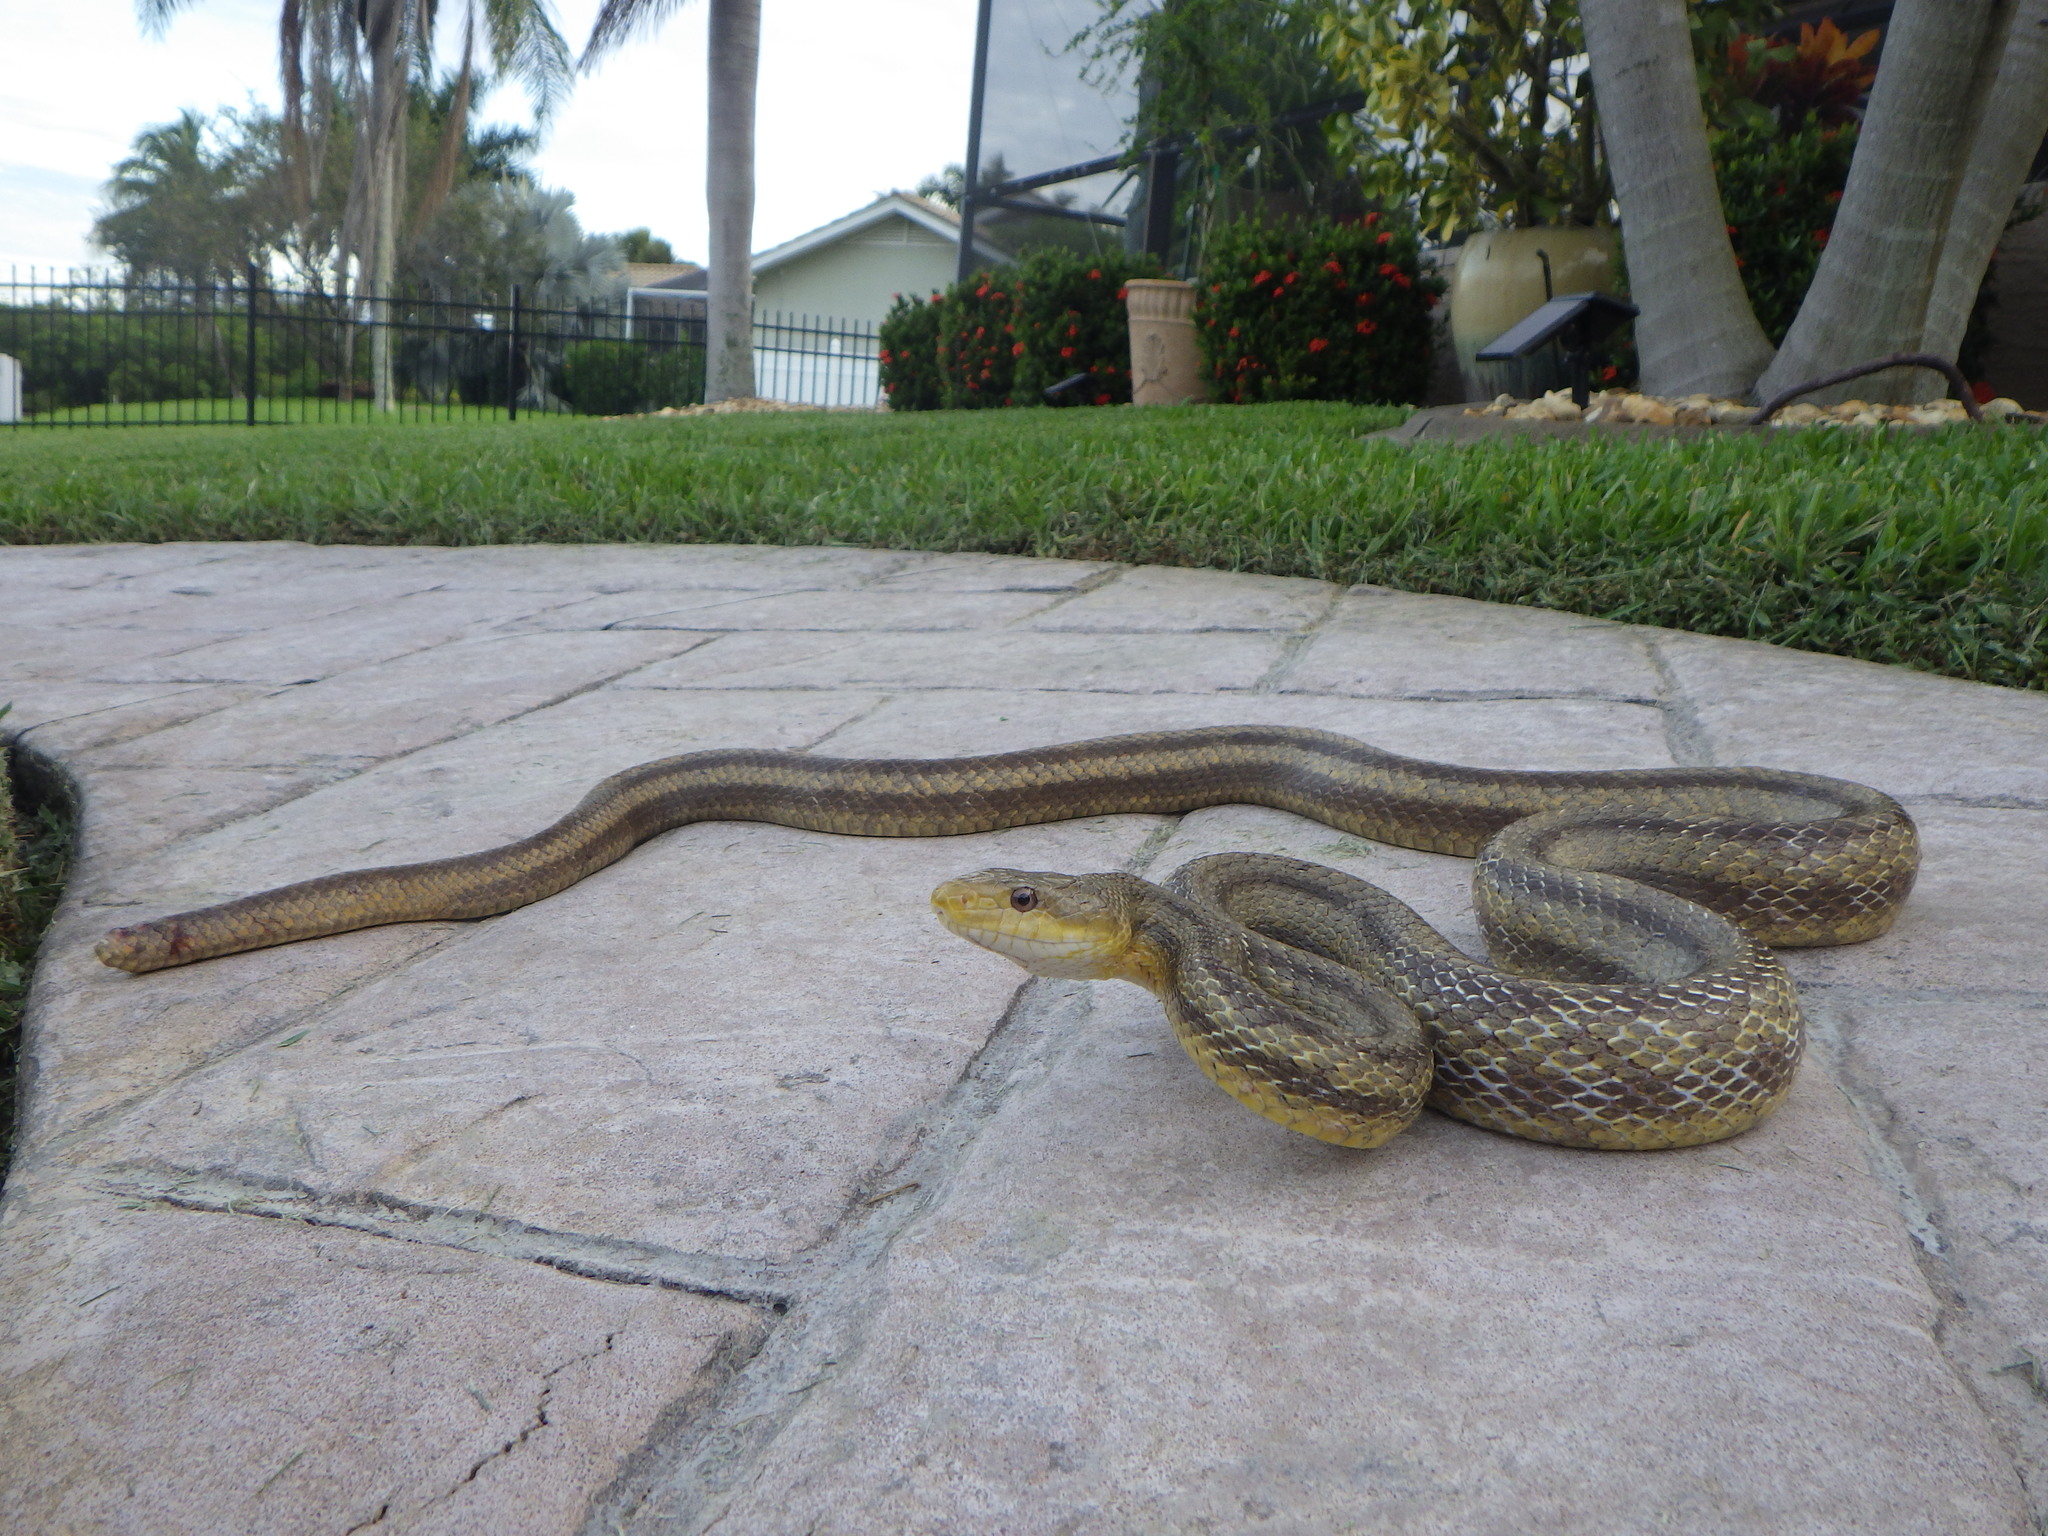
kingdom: Animalia
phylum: Chordata
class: Squamata
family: Colubridae
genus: Pantherophis
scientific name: Pantherophis alleghaniensis
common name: Eastern rat snake
